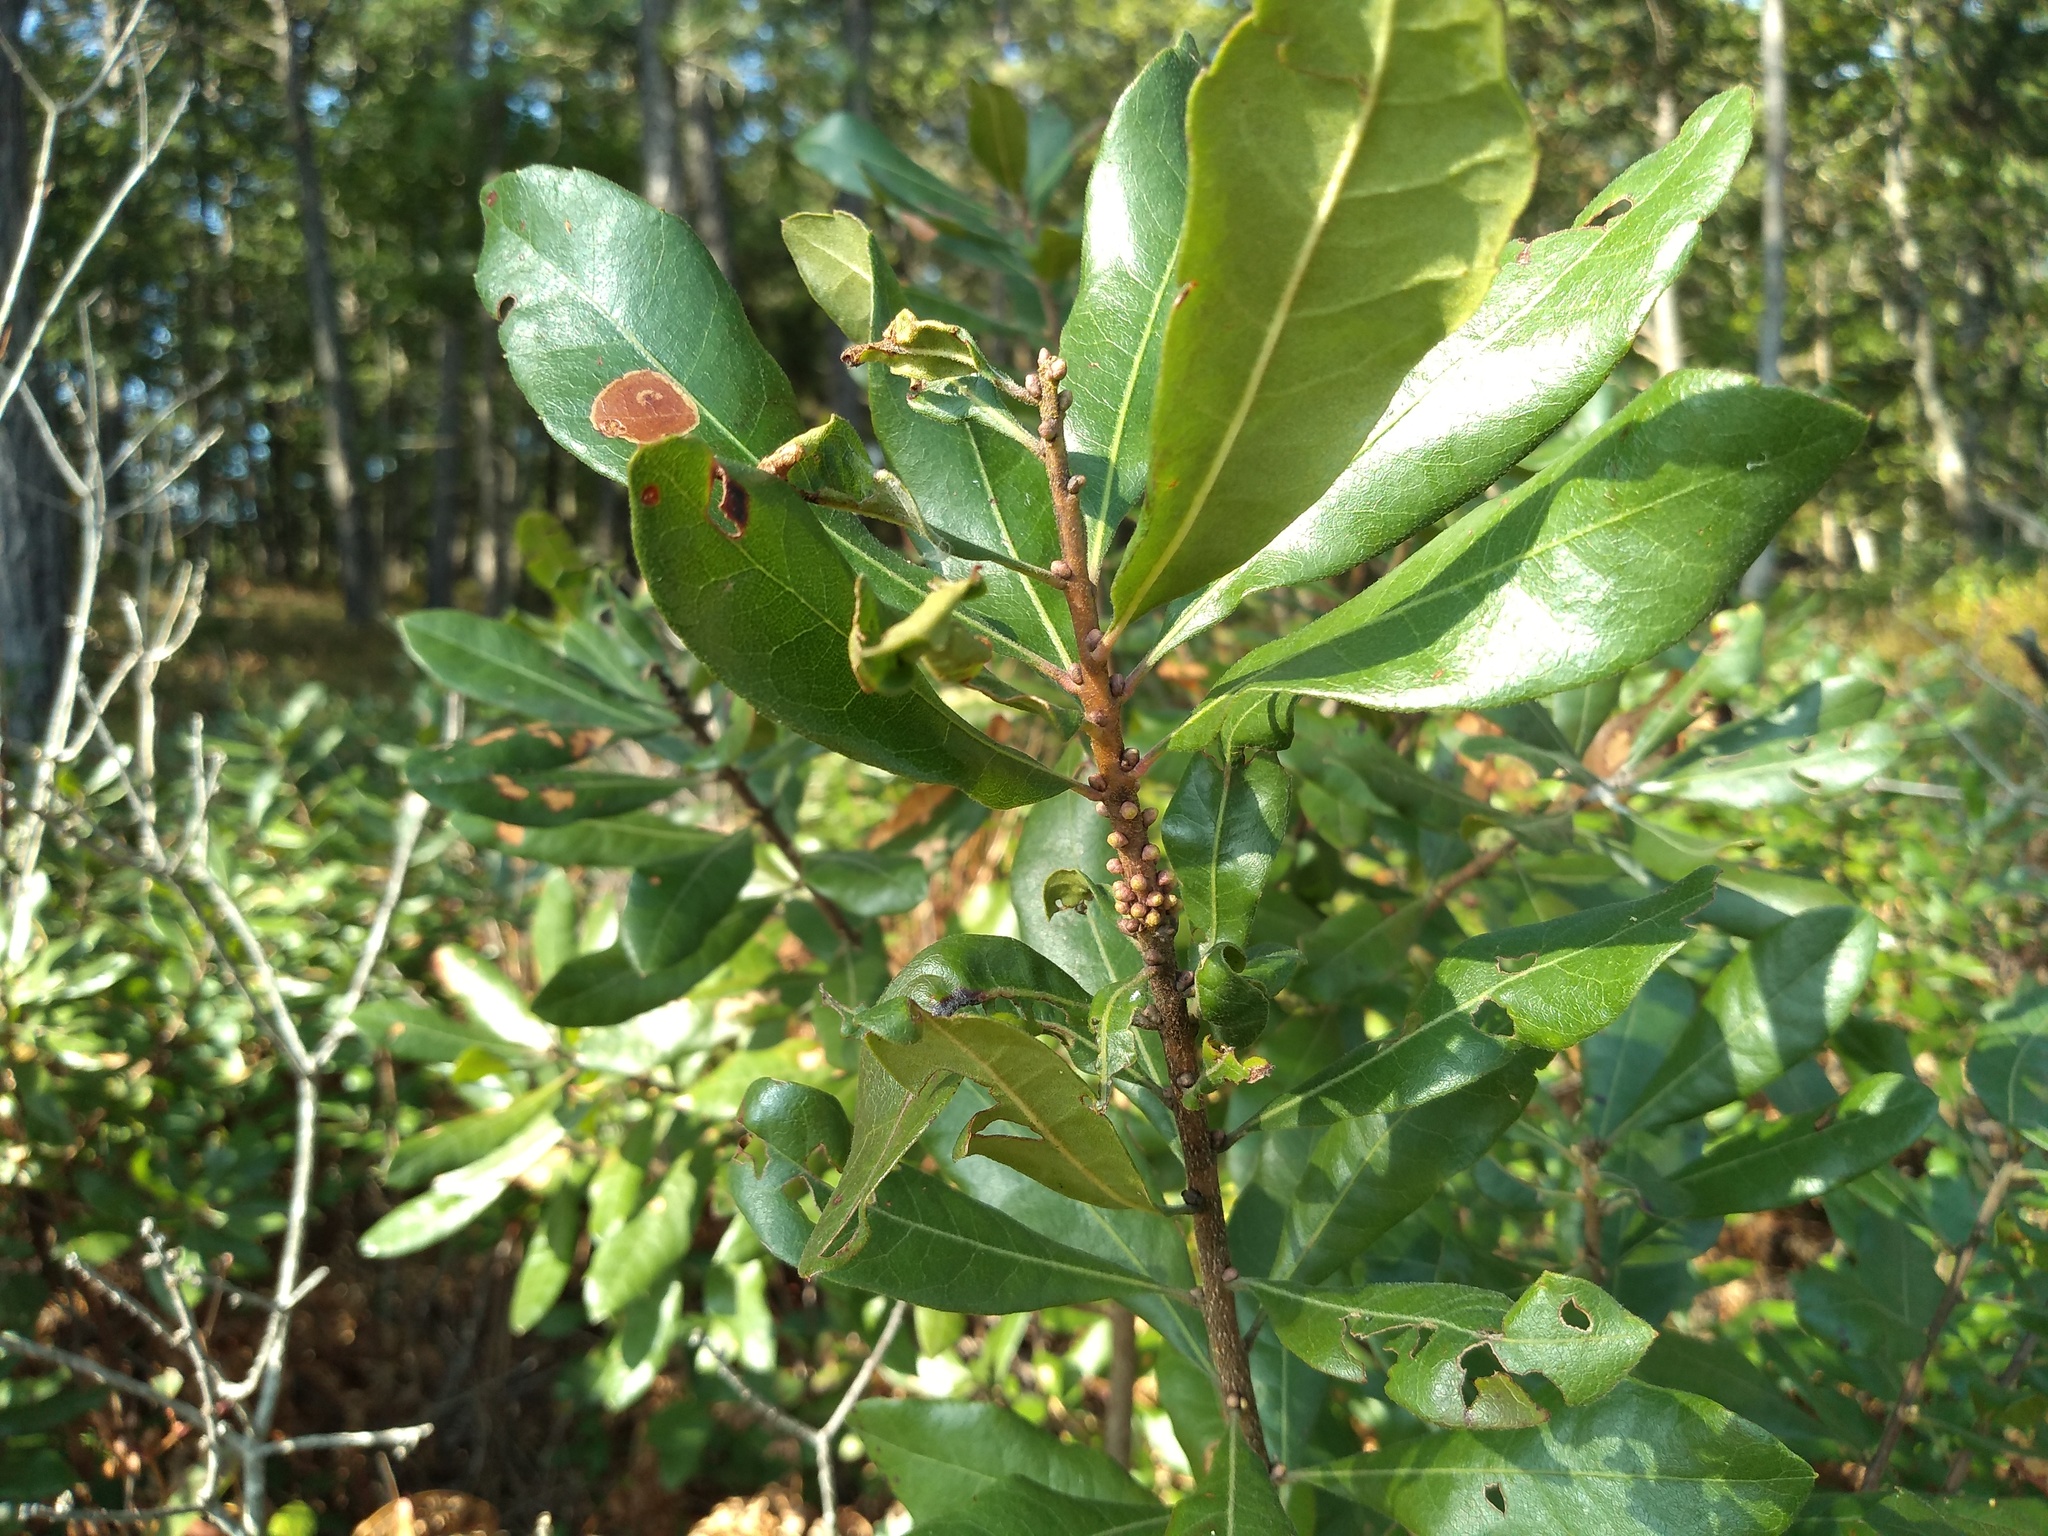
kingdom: Plantae
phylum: Tracheophyta
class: Magnoliopsida
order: Fagales
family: Myricaceae
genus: Morella
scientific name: Morella caroliniensis
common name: Evergreen bayberry
